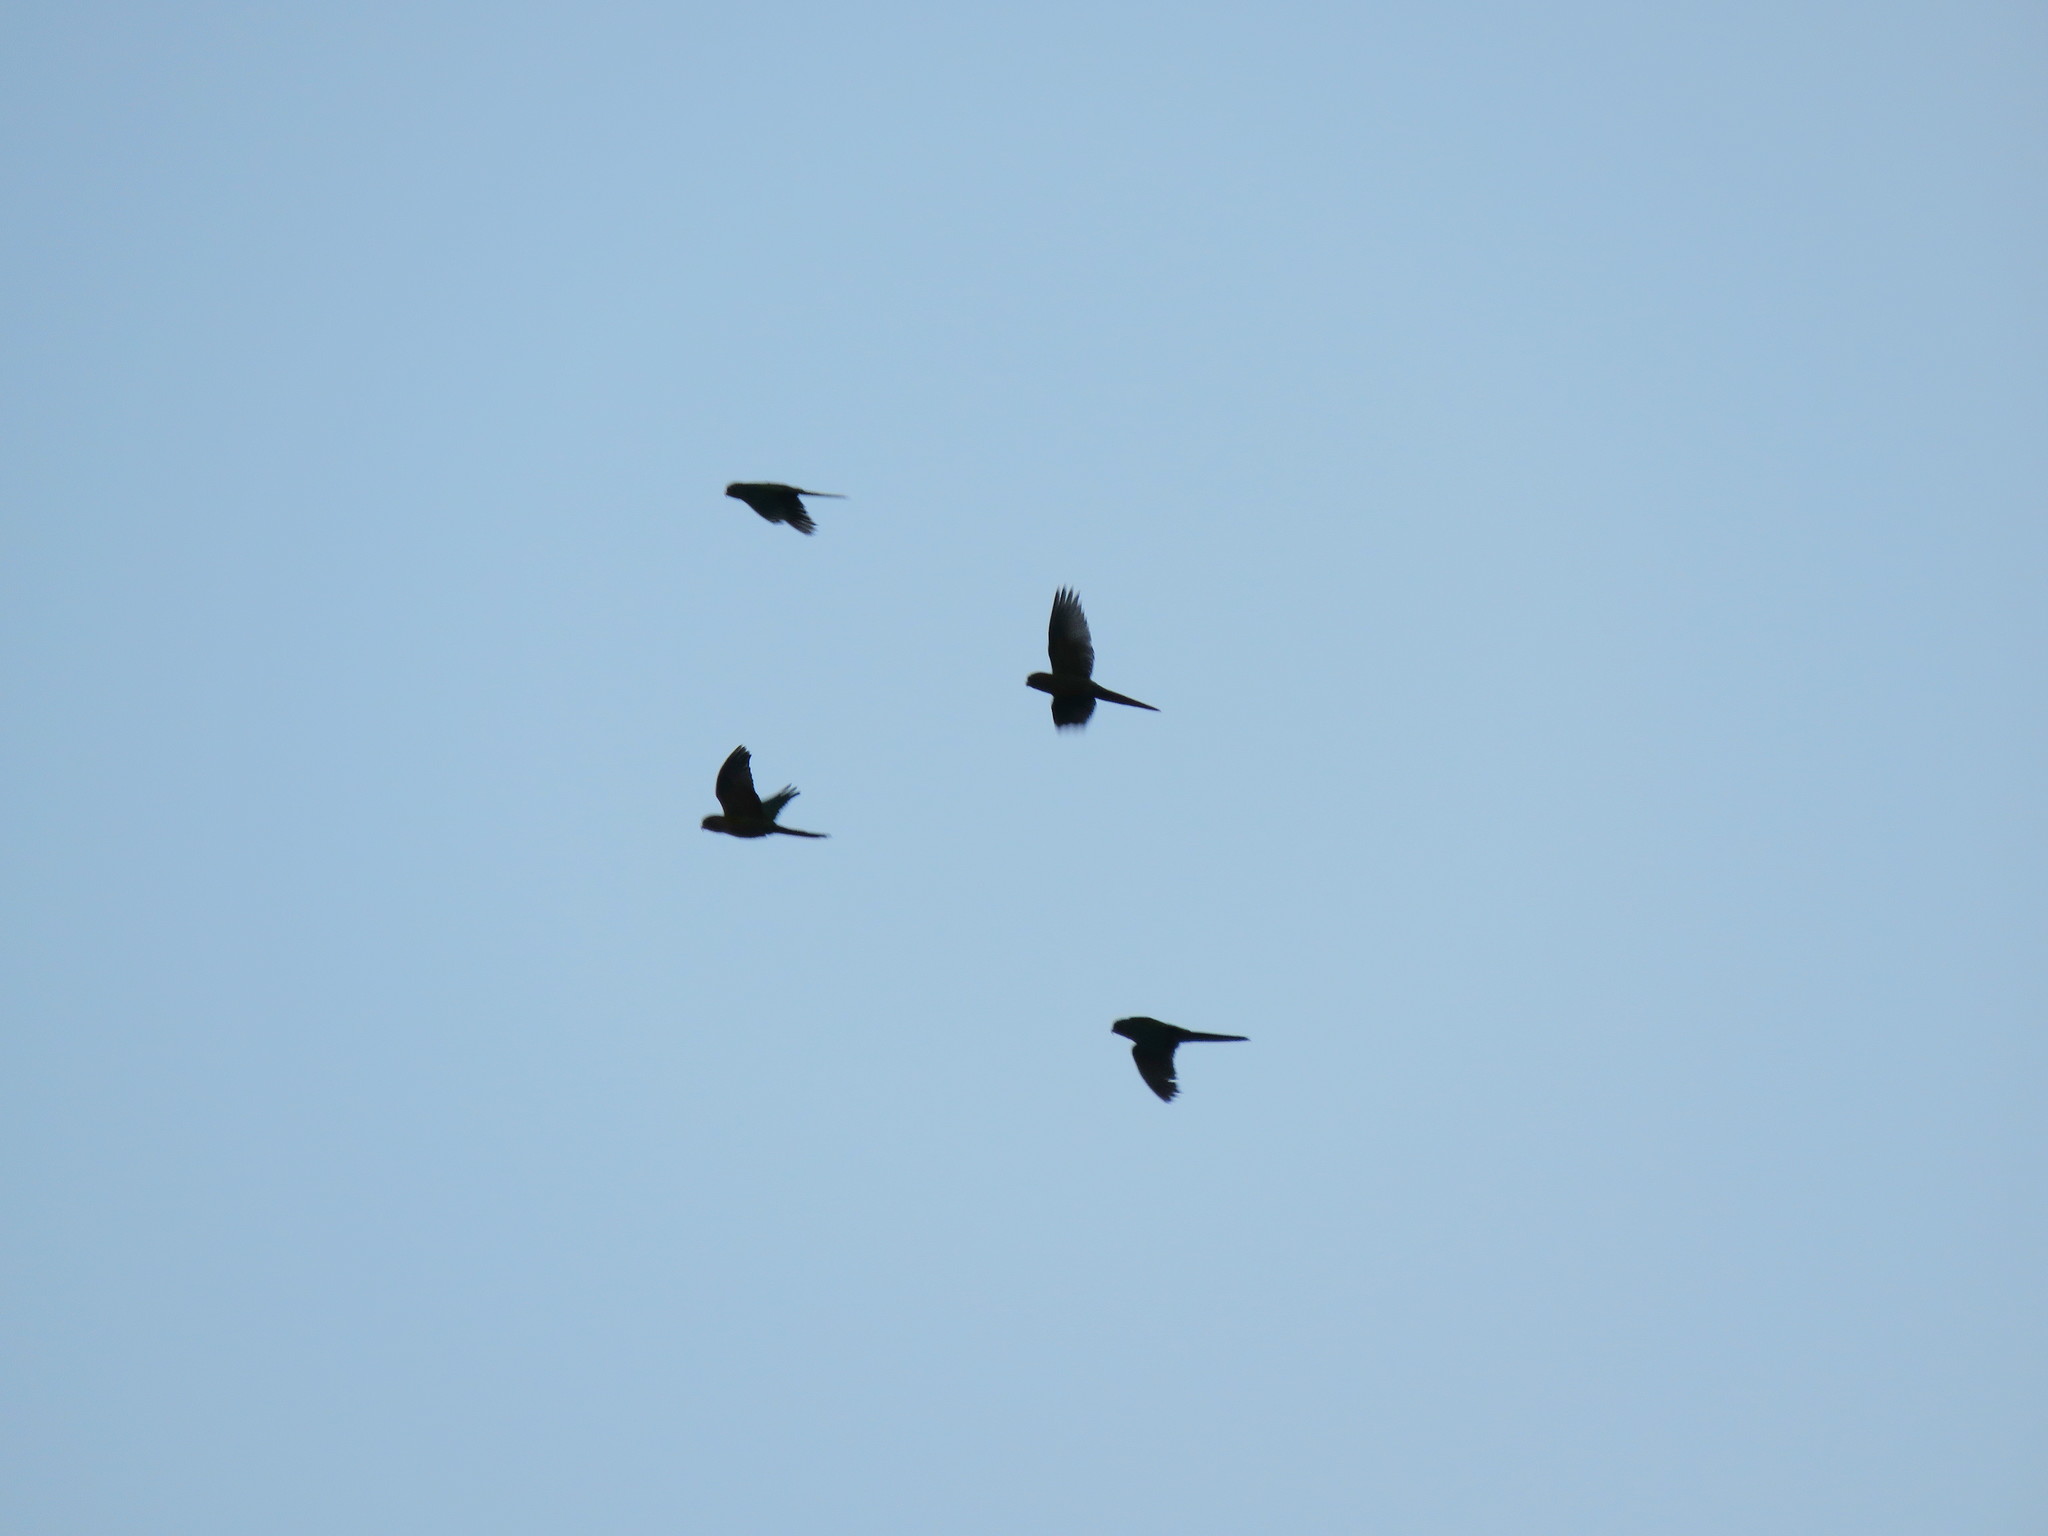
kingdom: Animalia
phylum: Chordata
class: Aves
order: Psittaciformes
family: Psittacidae
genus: Aratinga
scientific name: Aratinga leucophthalma
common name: White-eyed parakeet
